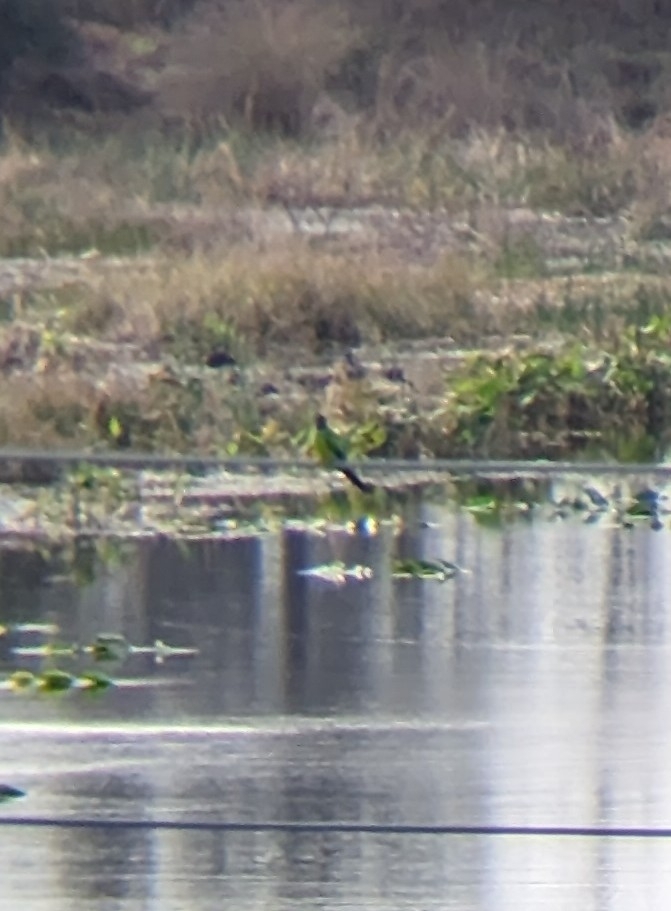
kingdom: Animalia
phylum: Chordata
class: Aves
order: Psittaciformes
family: Psittacidae
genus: Nandayus
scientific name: Nandayus nenday
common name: Nanday parakeet
